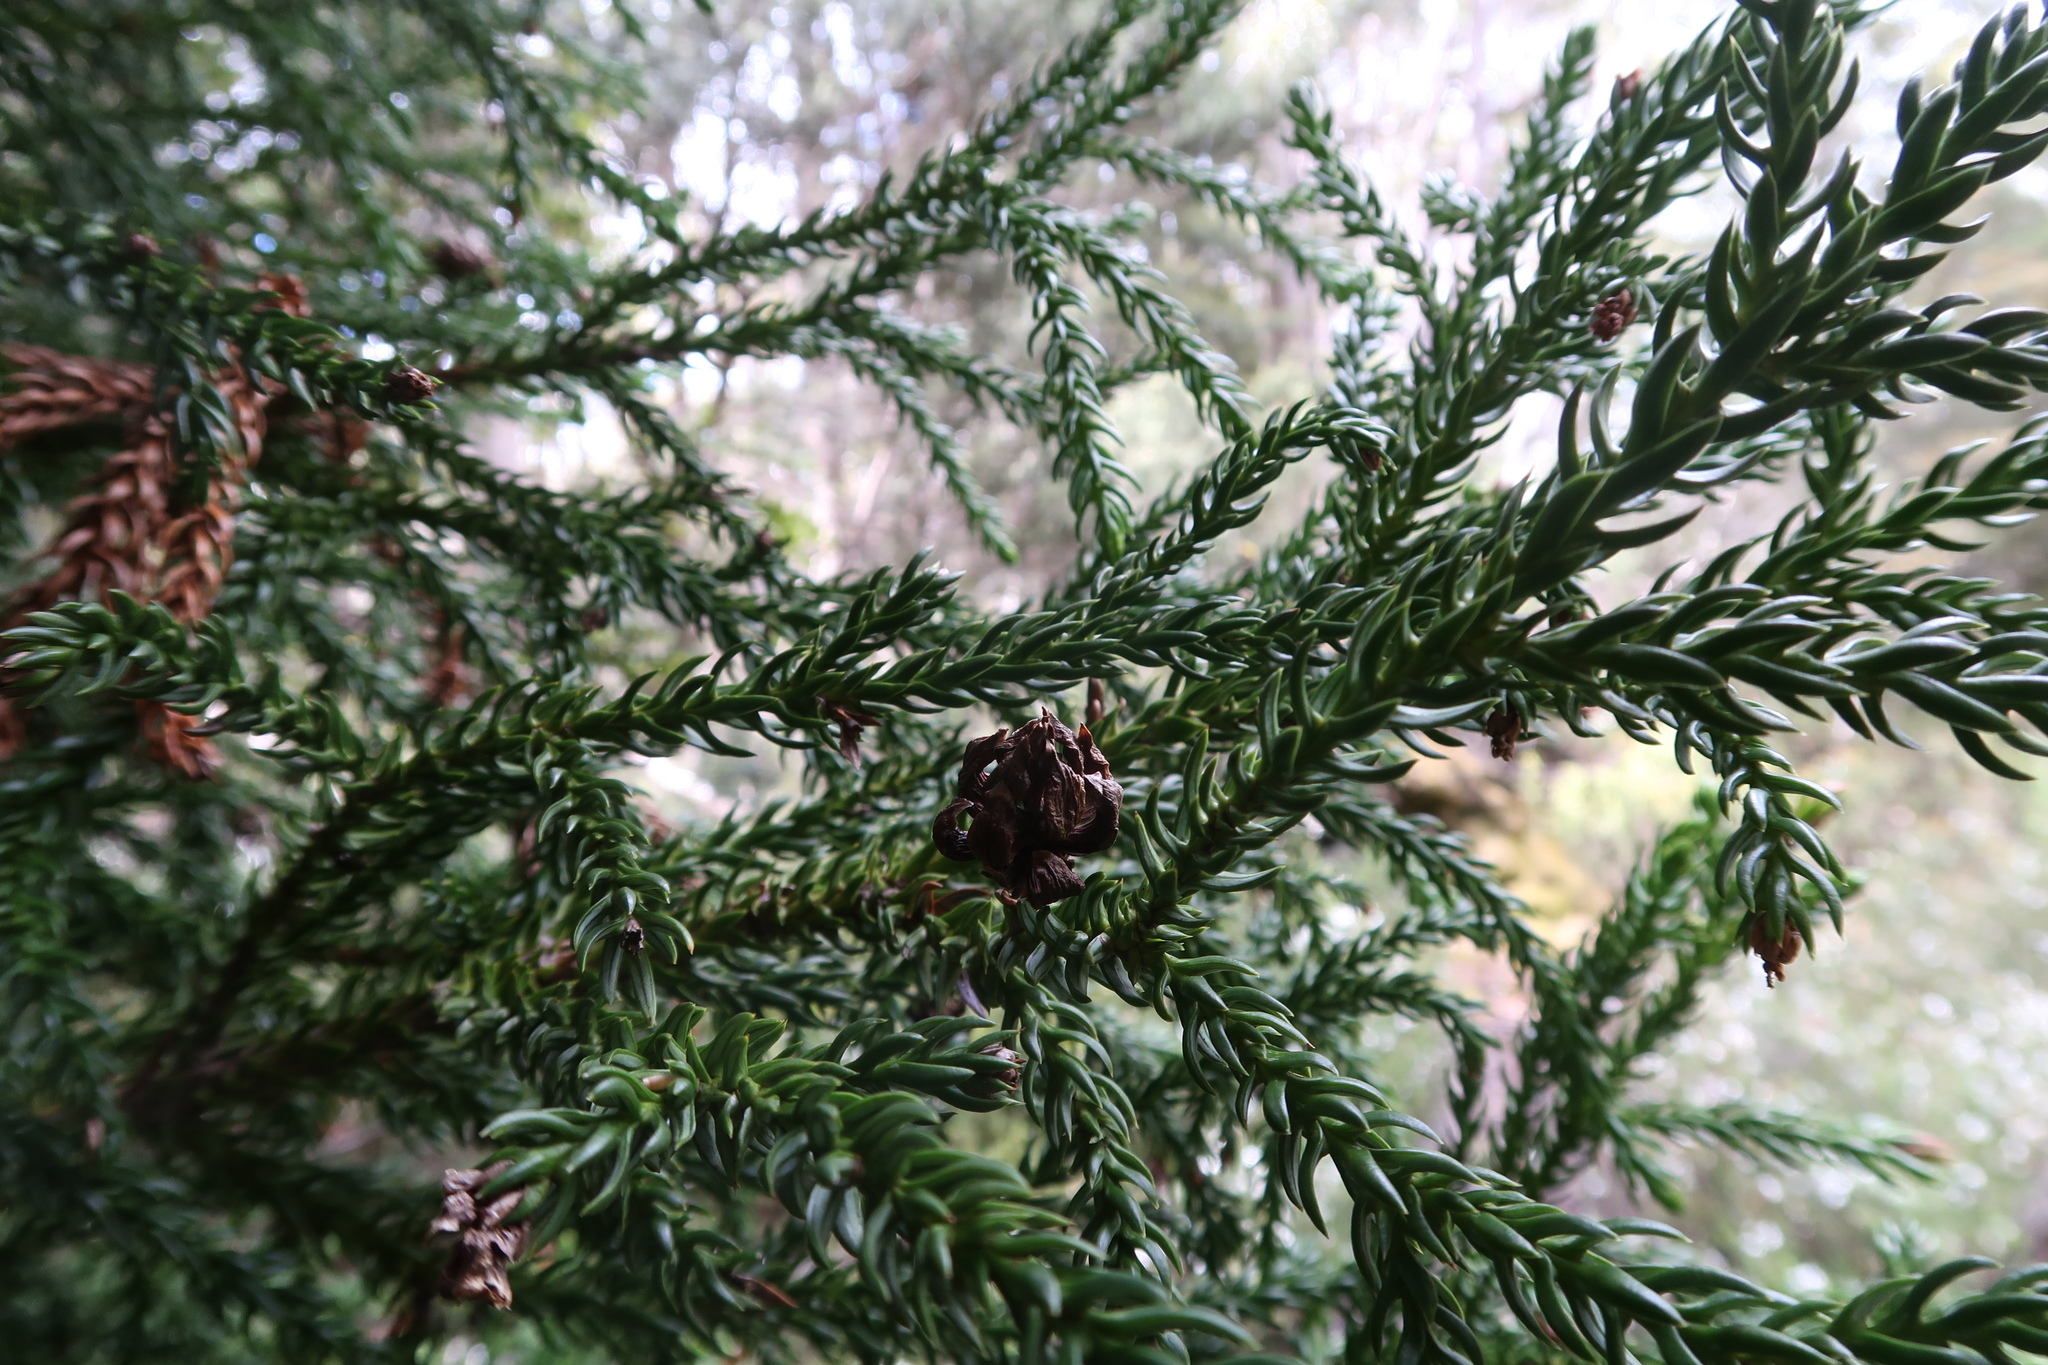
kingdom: Plantae
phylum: Tracheophyta
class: Pinopsida
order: Pinales
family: Cupressaceae
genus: Athrotaxis
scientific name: Athrotaxis selaginoides
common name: King william pine
